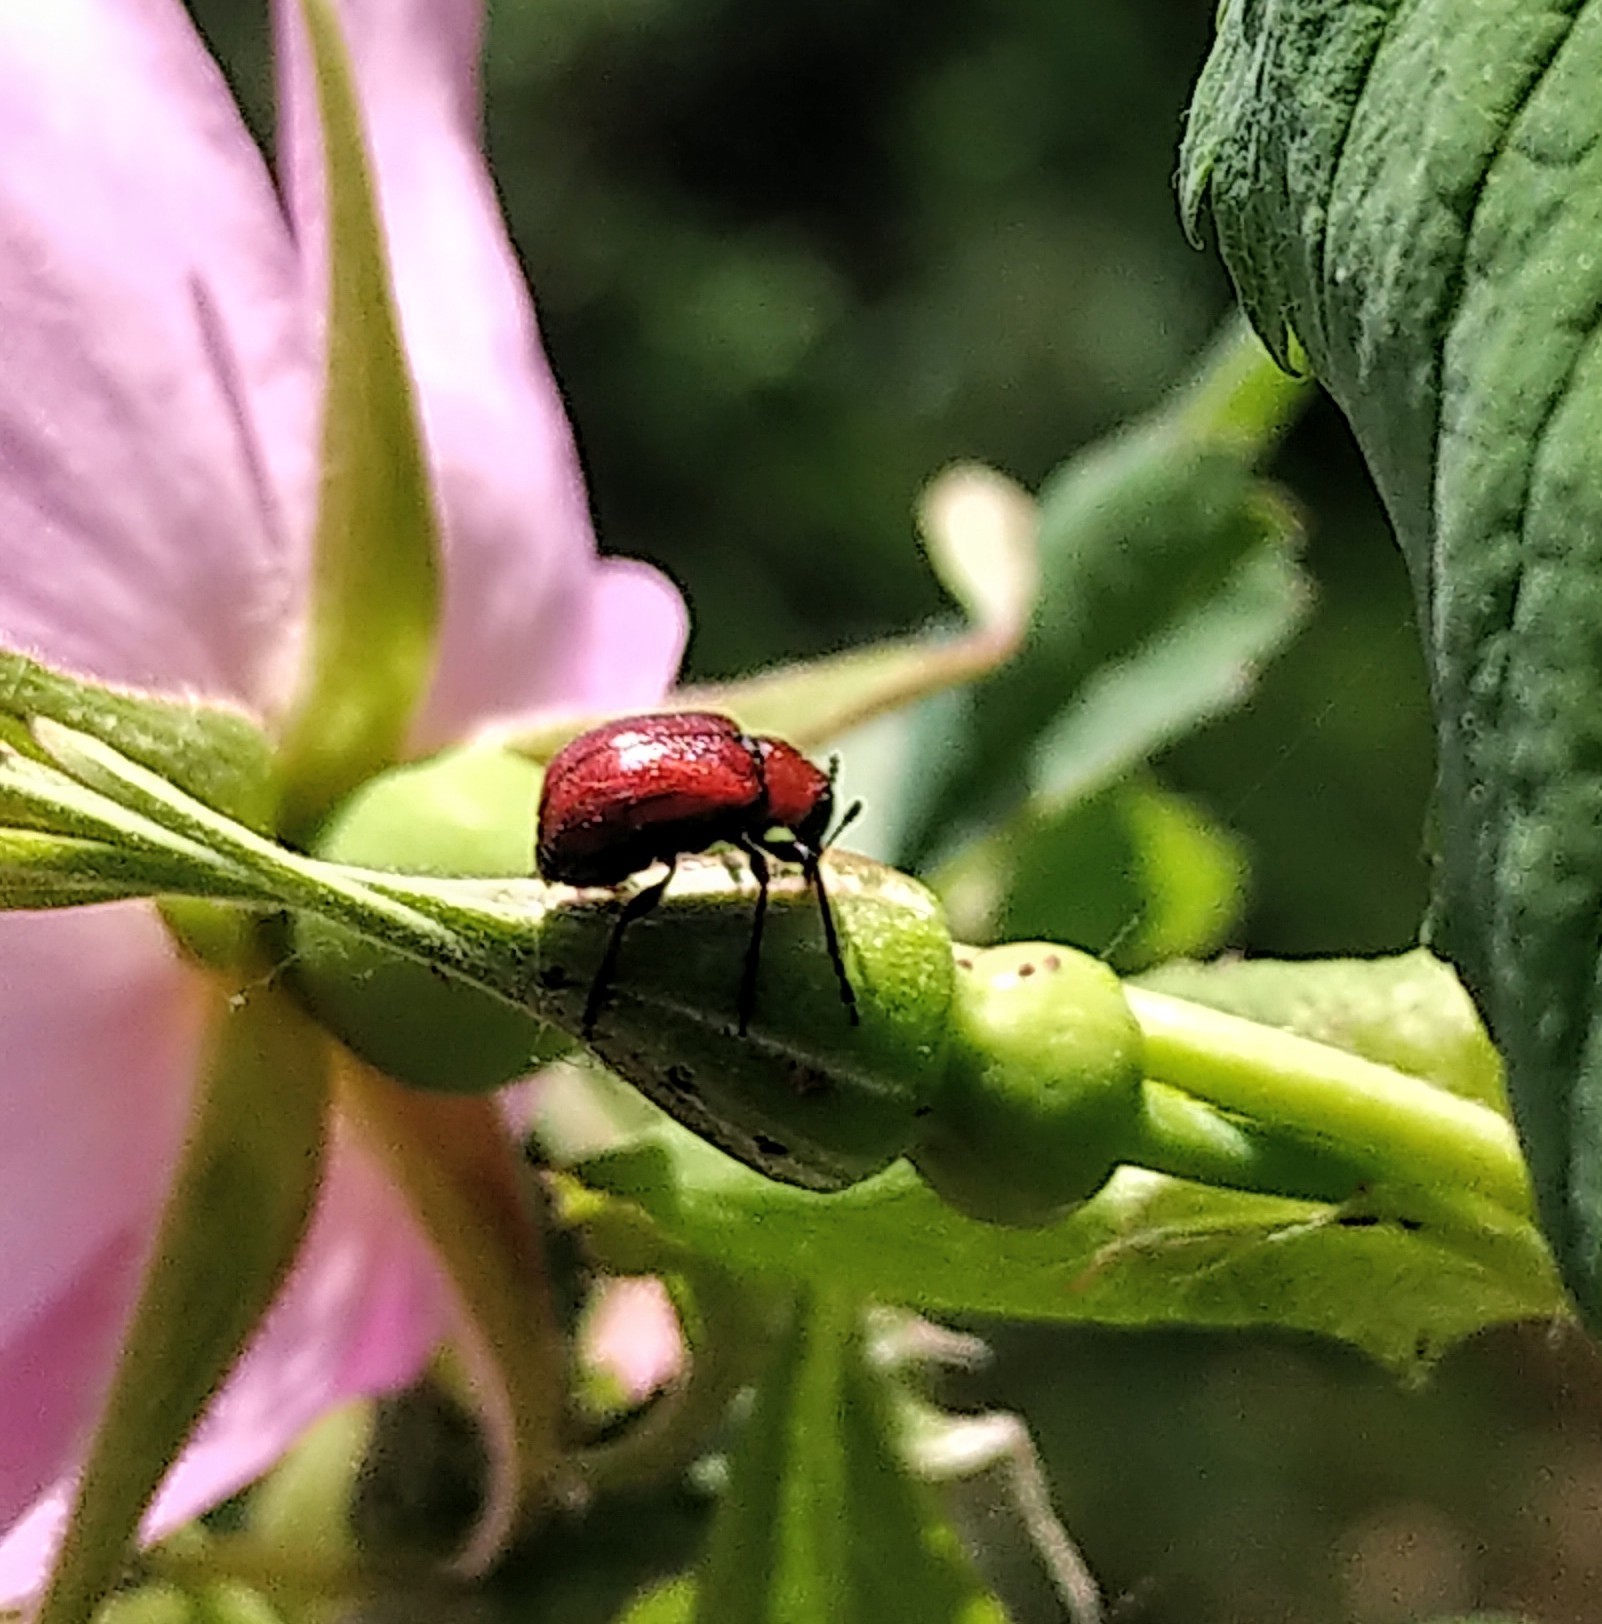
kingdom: Animalia
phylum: Arthropoda
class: Insecta
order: Coleoptera
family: Attelabidae
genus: Merhynchites
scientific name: Merhynchites wickhami
